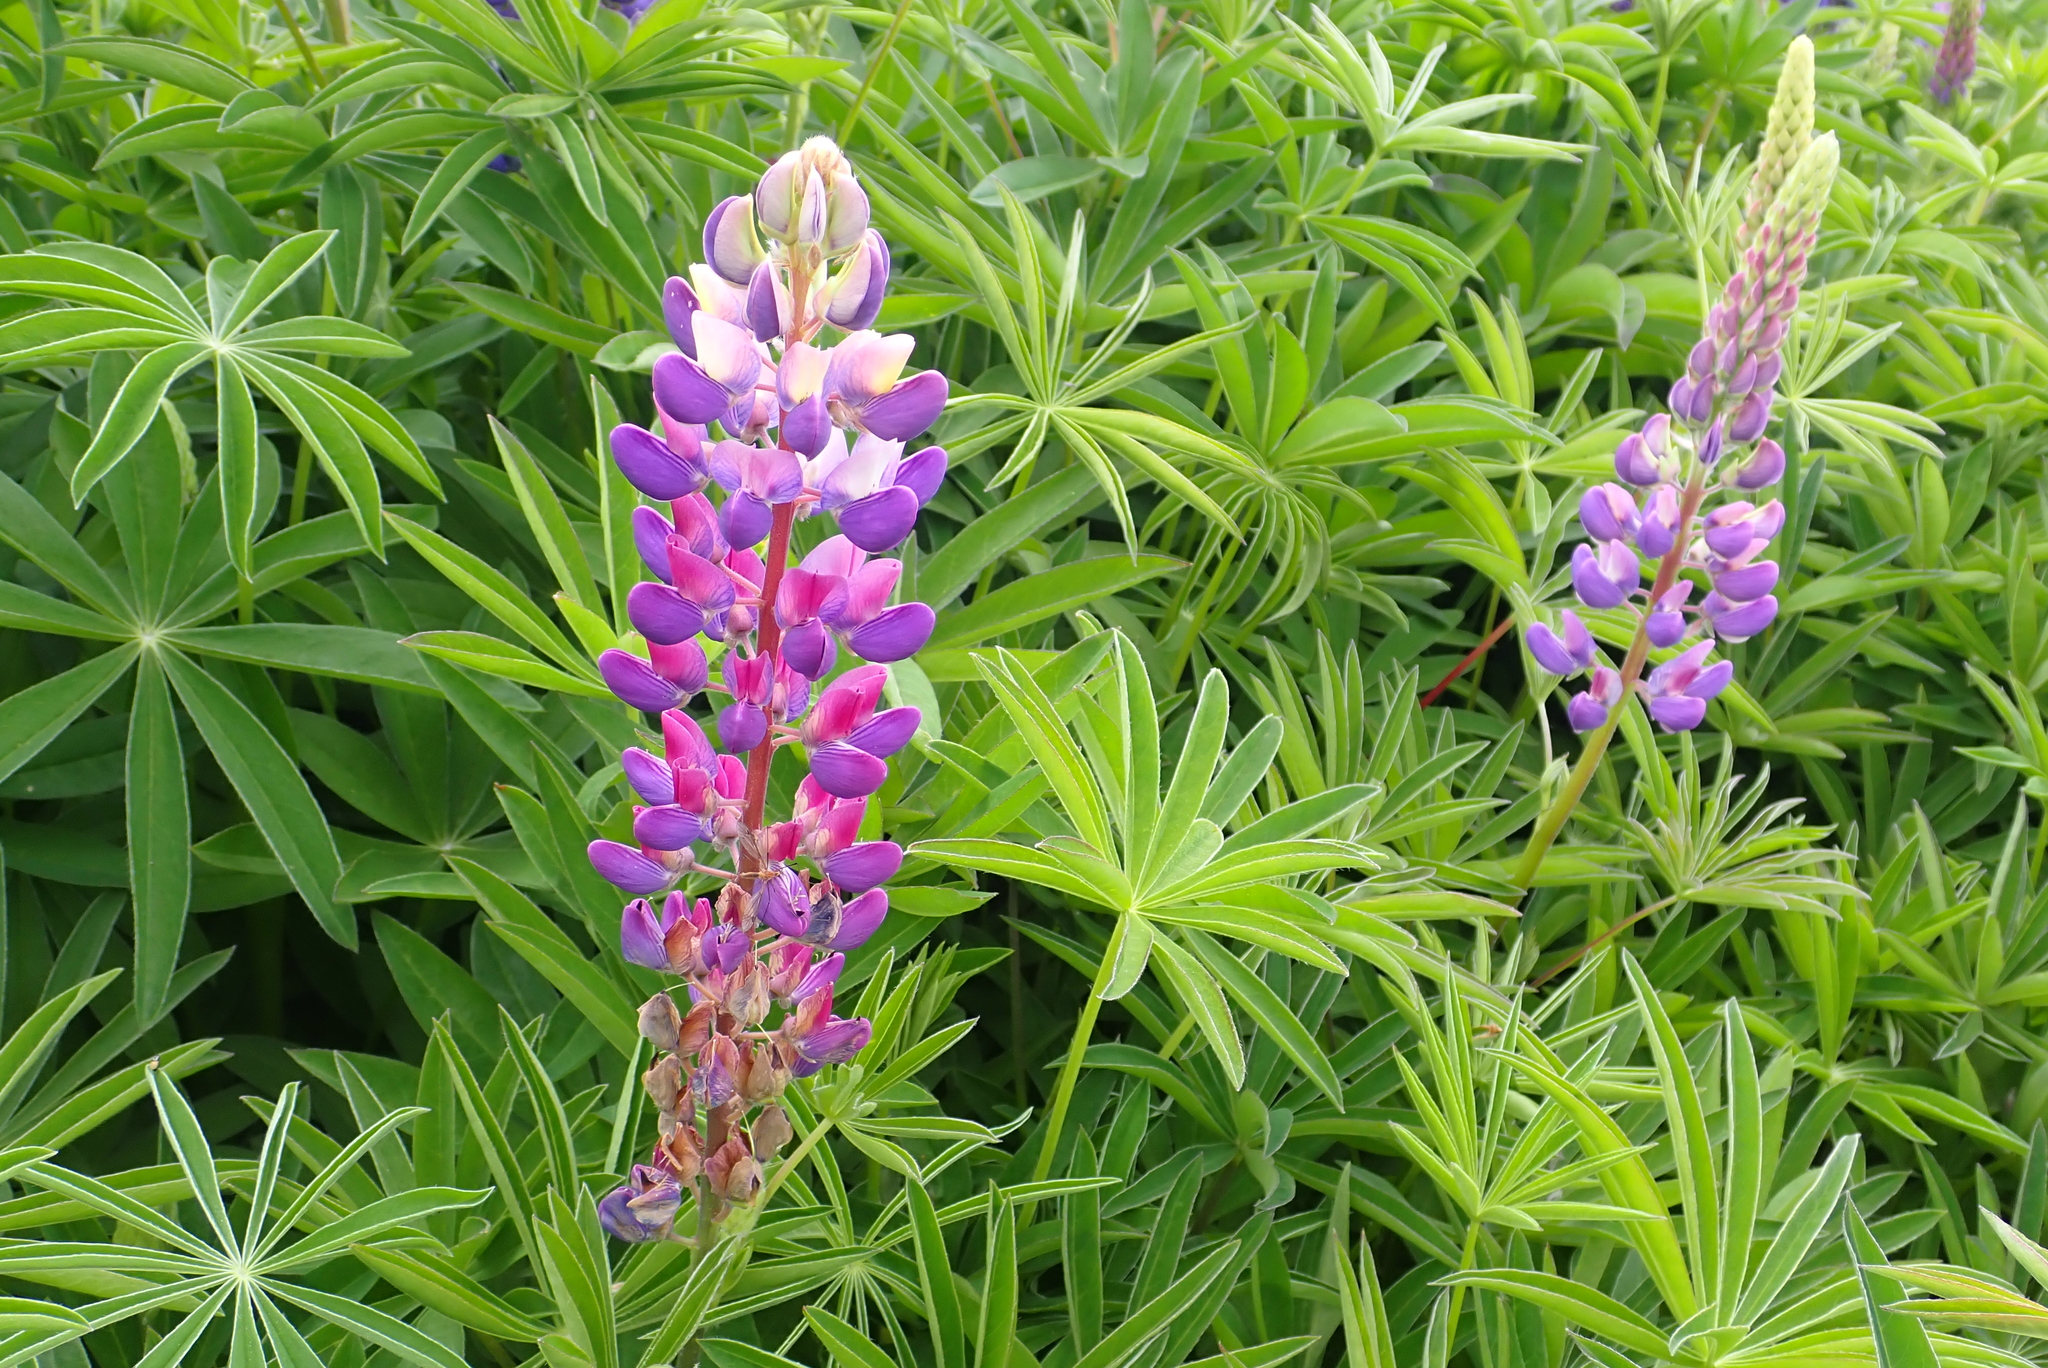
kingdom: Plantae
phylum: Tracheophyta
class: Magnoliopsida
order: Fabales
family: Fabaceae
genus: Lupinus
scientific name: Lupinus polyphyllus
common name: Garden lupin
